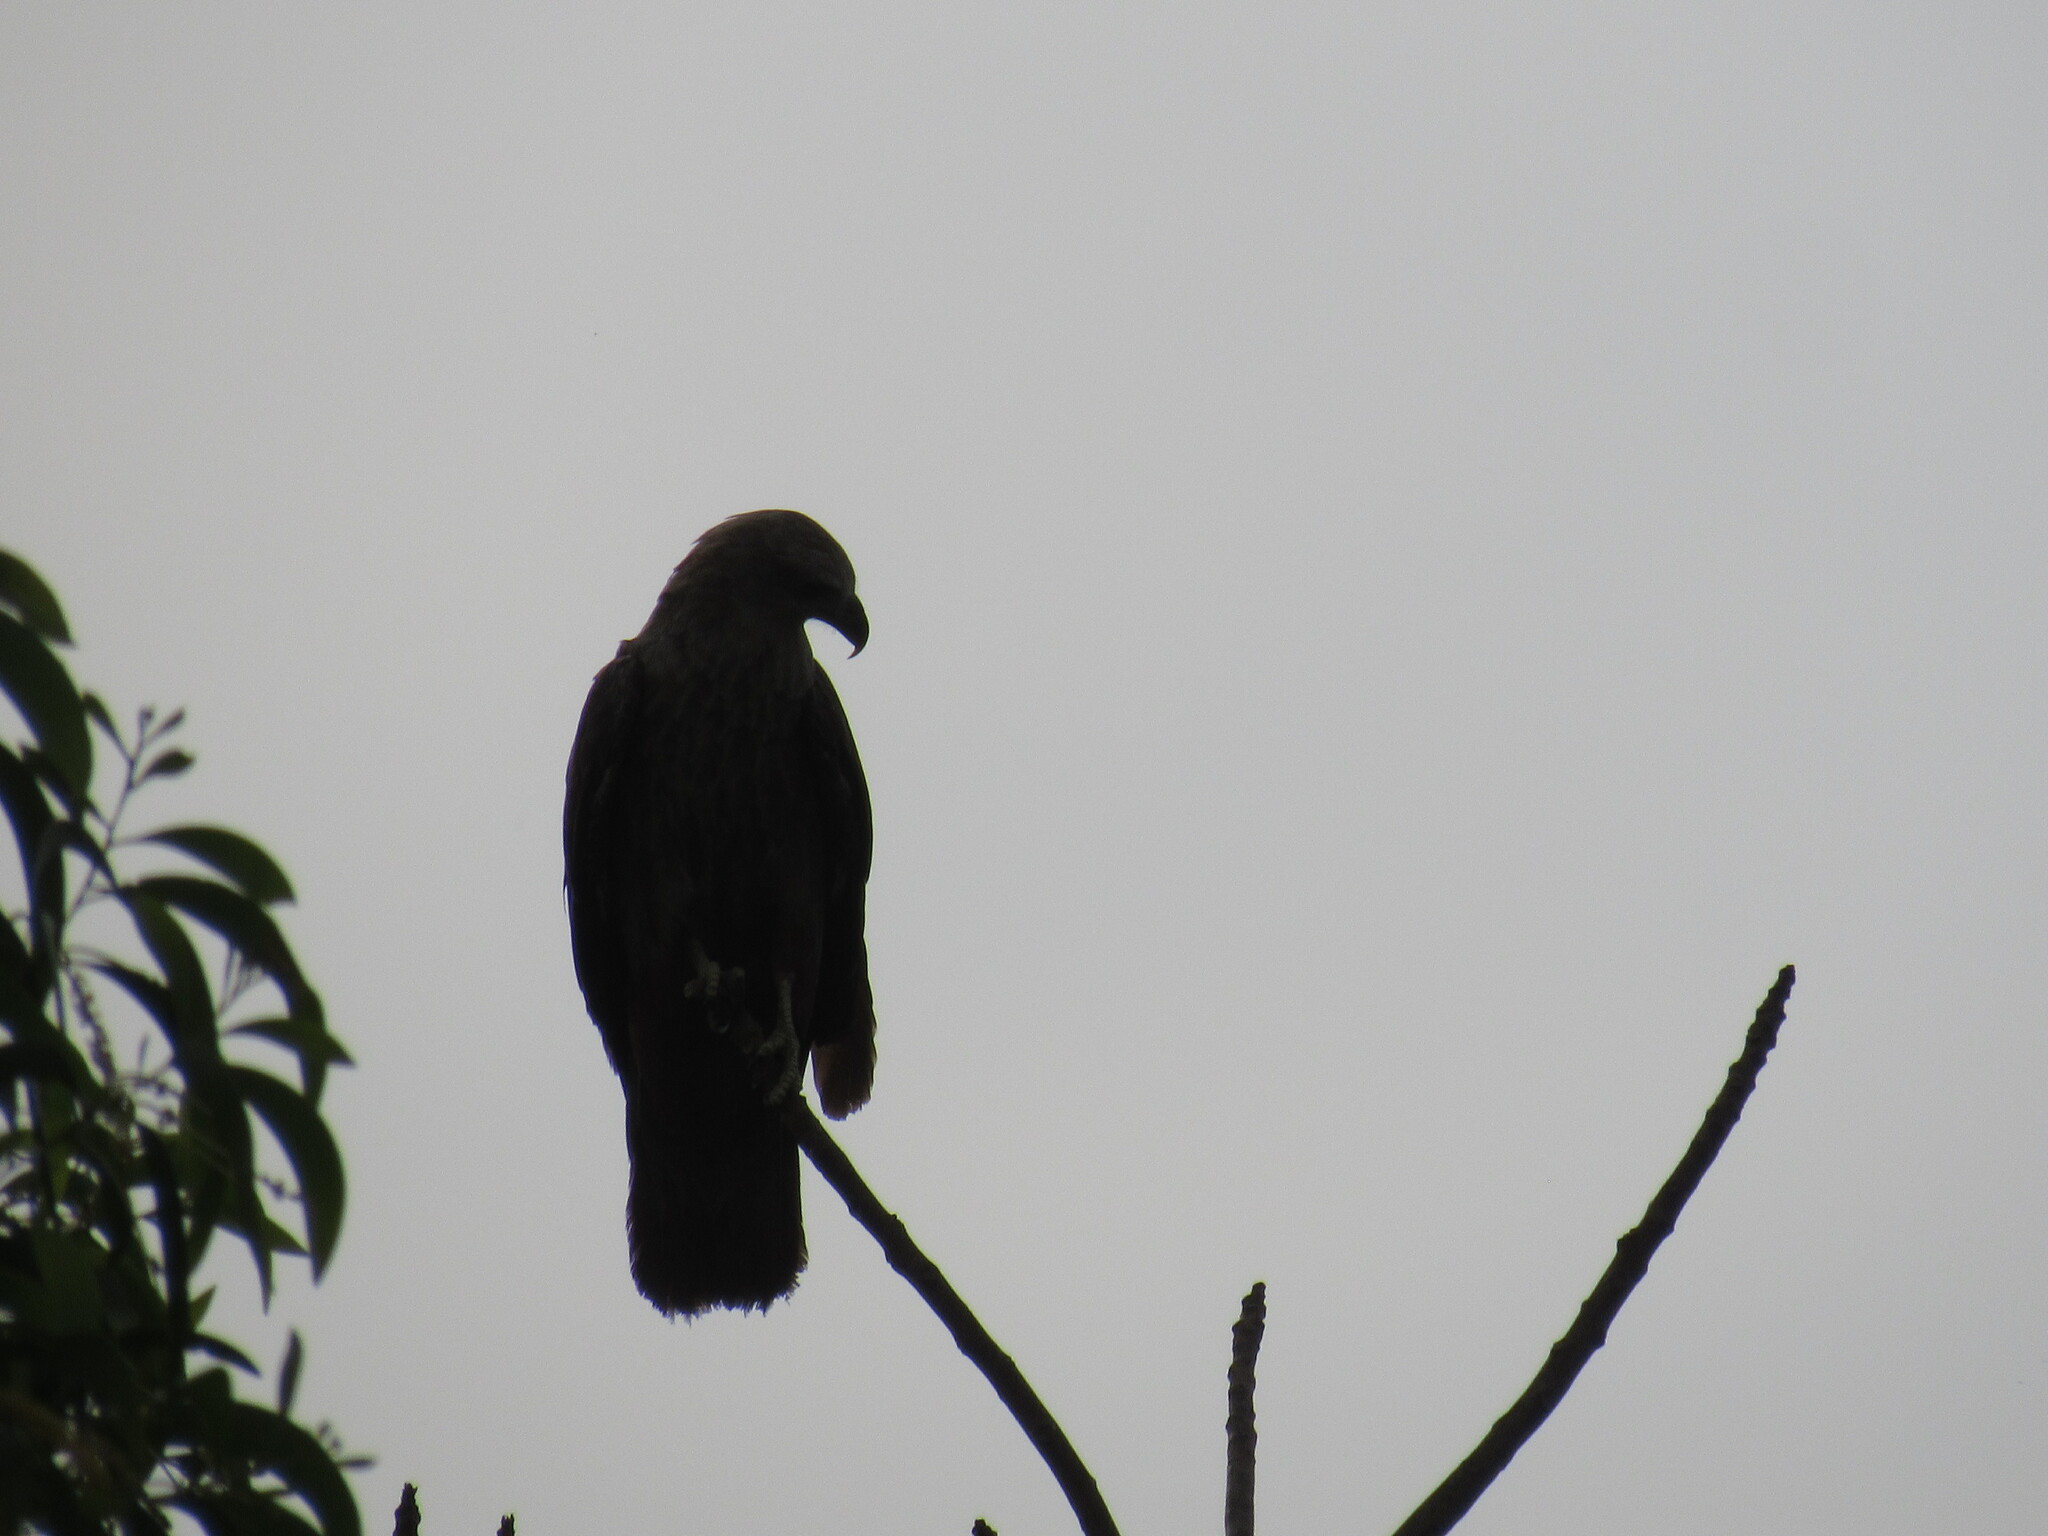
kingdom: Animalia
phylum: Chordata
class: Aves
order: Accipitriformes
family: Accipitridae
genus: Haliastur
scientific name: Haliastur indus
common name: Brahminy kite
